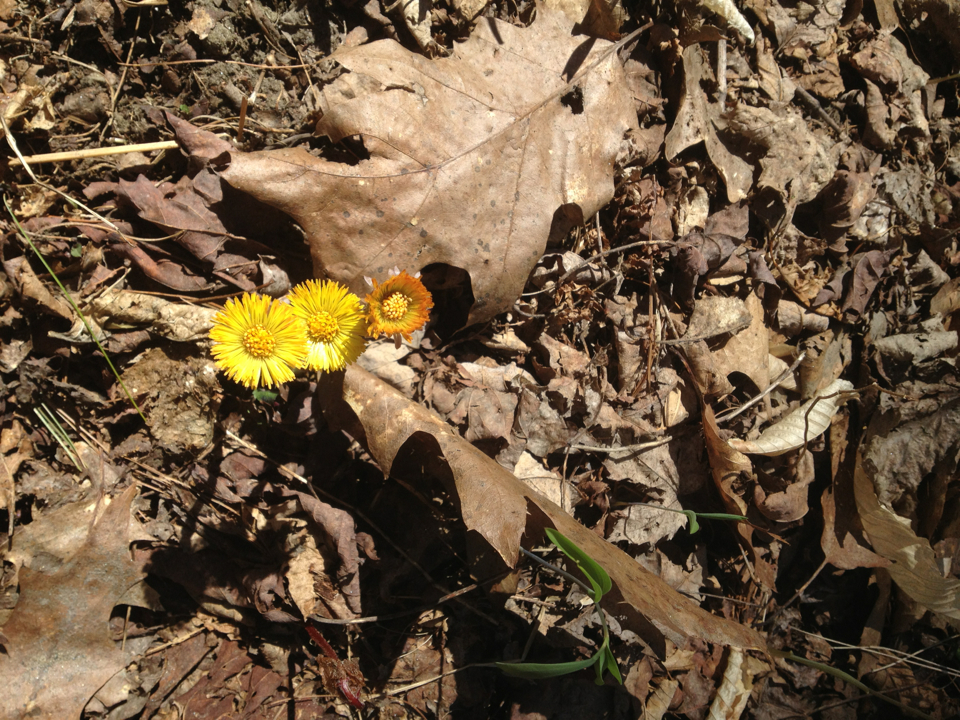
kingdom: Plantae
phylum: Tracheophyta
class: Magnoliopsida
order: Asterales
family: Asteraceae
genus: Tussilago
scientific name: Tussilago farfara
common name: Coltsfoot
